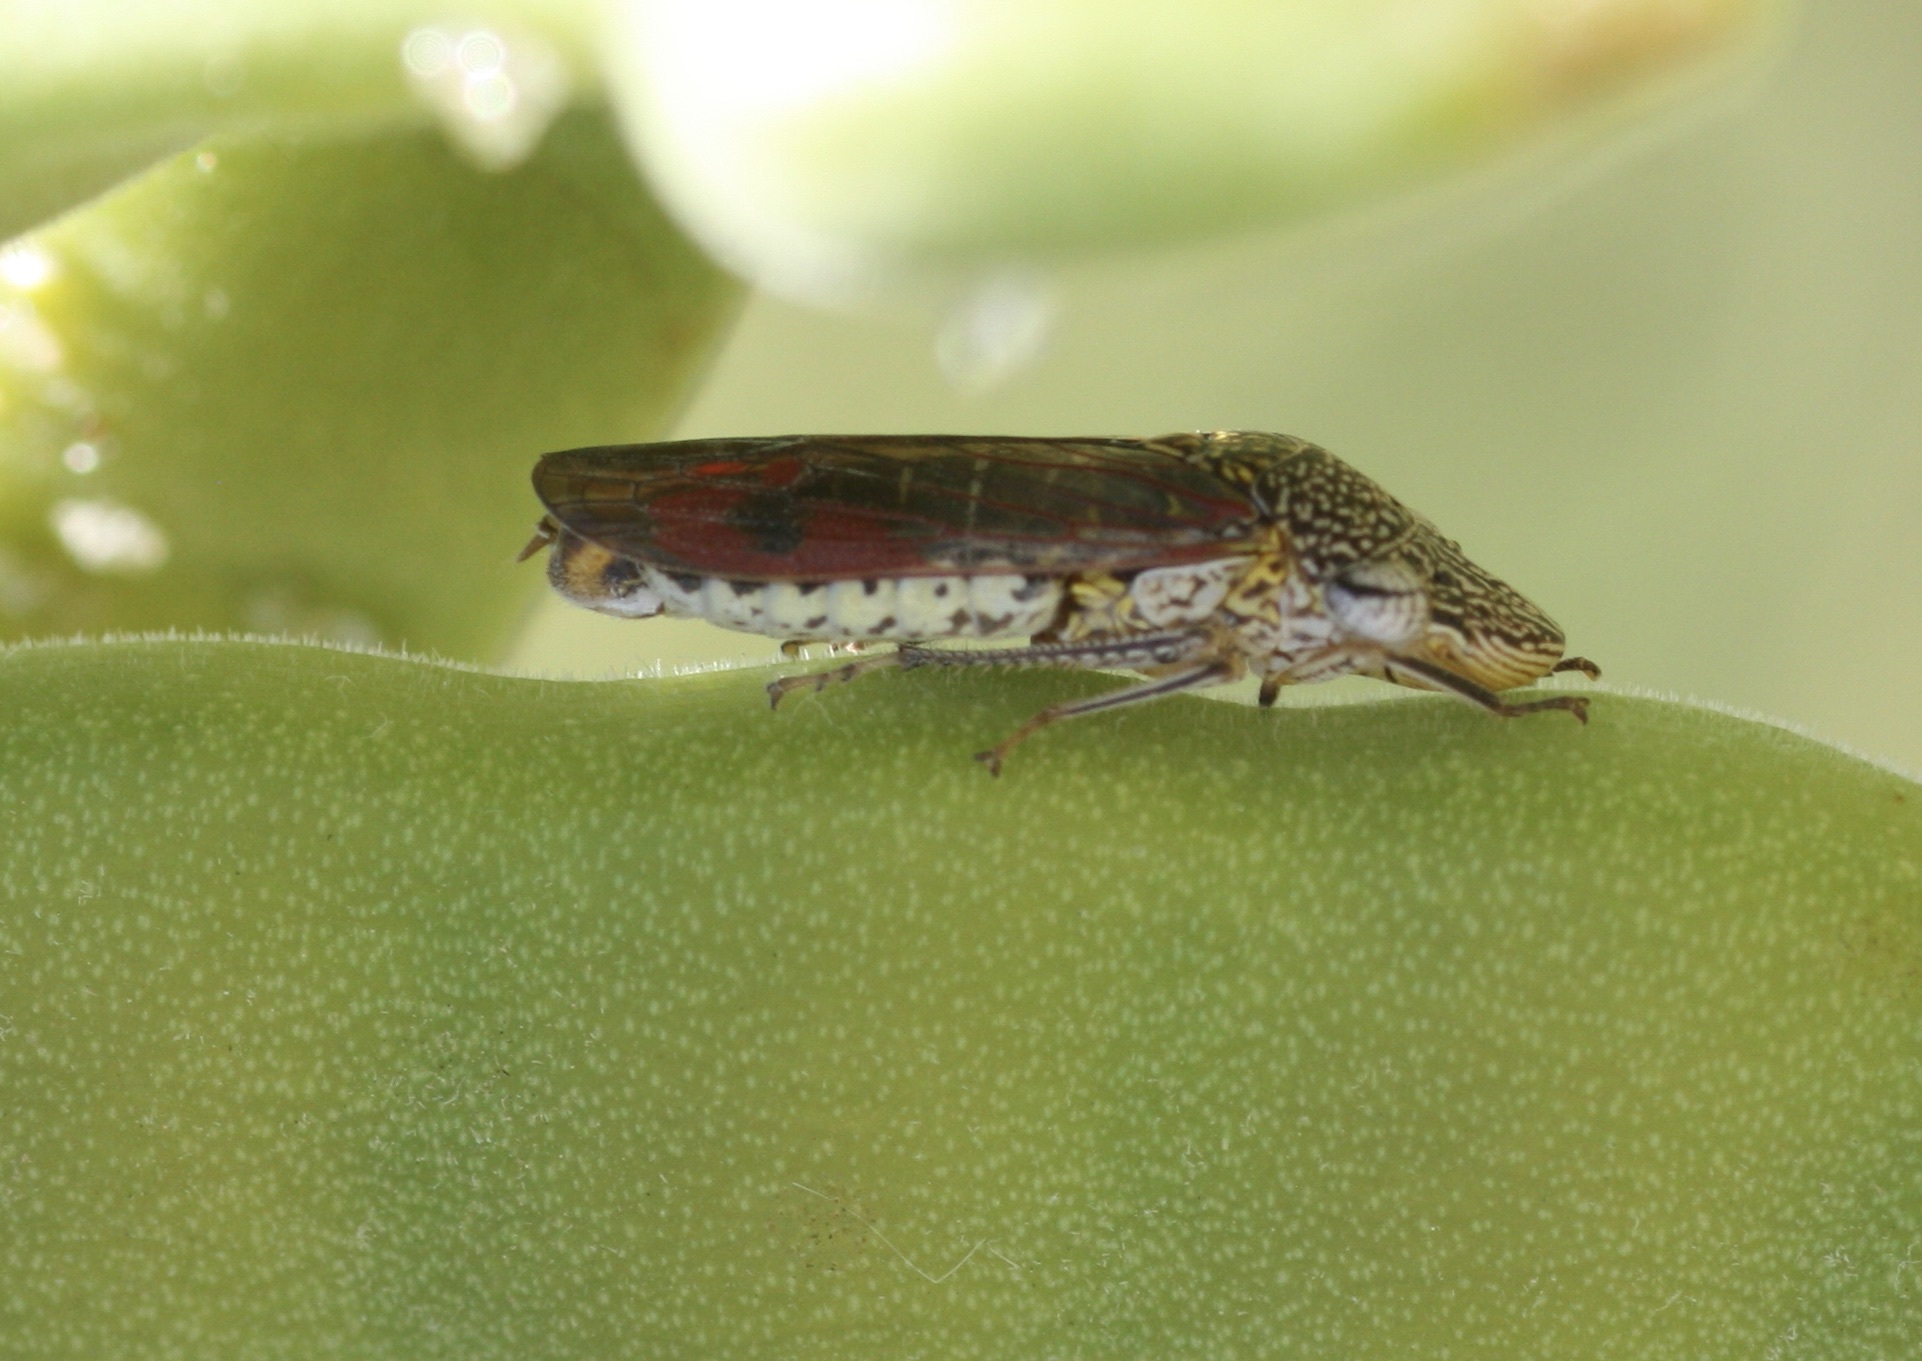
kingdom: Animalia
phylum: Arthropoda
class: Insecta
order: Hemiptera
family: Cicadellidae
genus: Homalodisca
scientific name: Homalodisca liturata
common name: Lacertate sharpshooter
